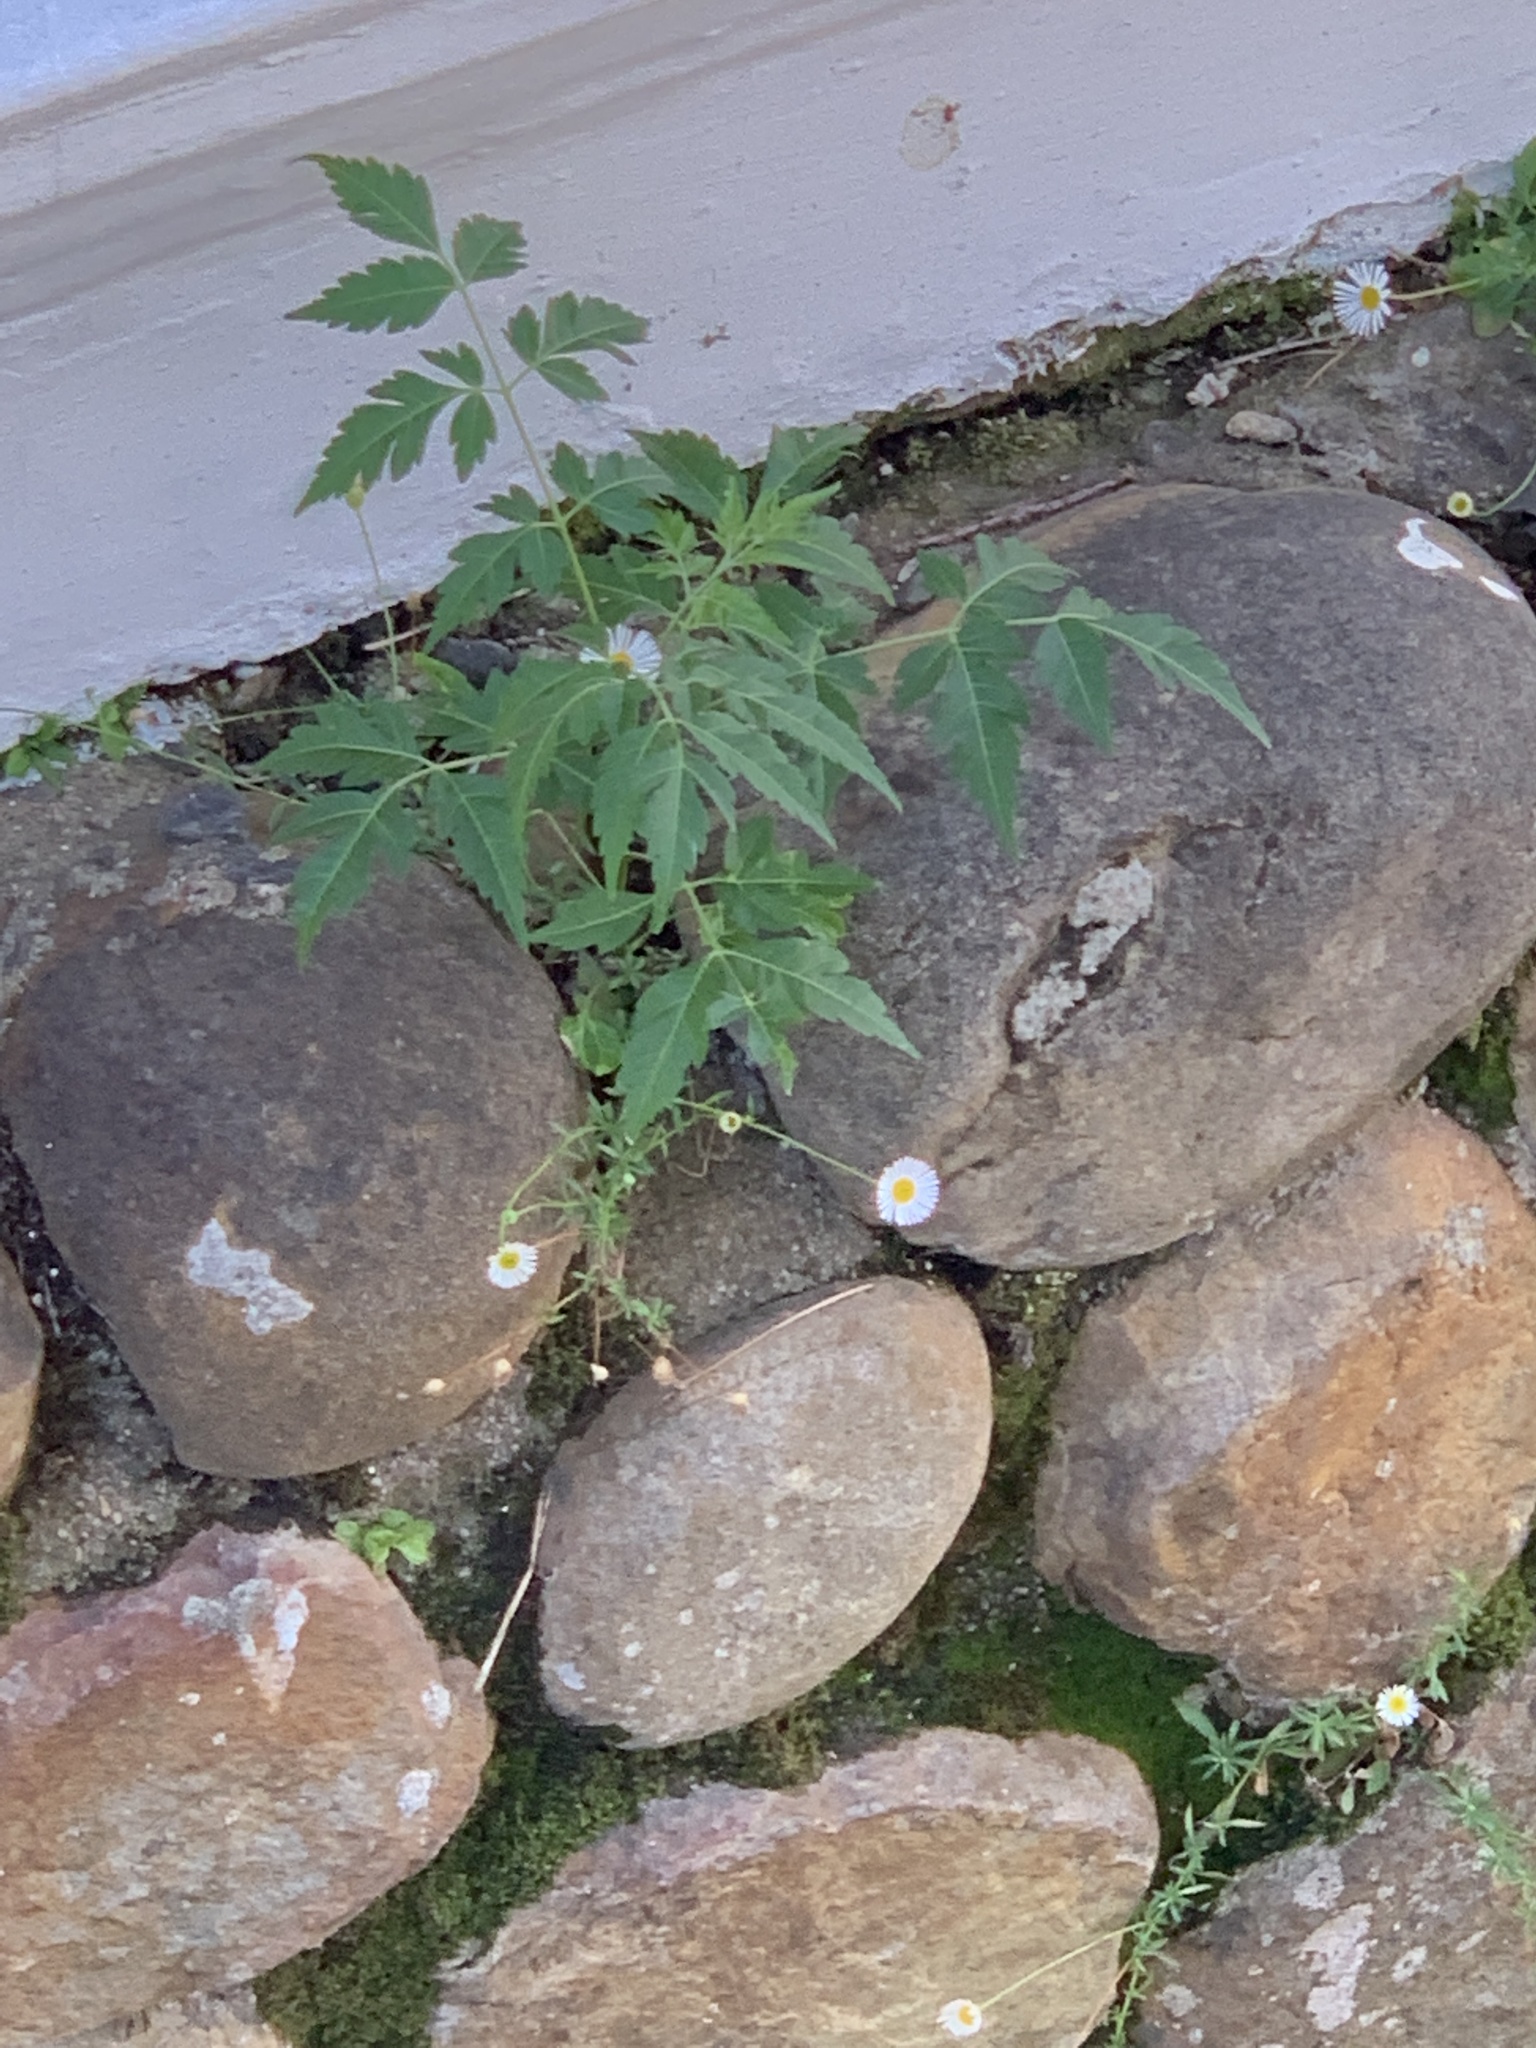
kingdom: Plantae
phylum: Tracheophyta
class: Magnoliopsida
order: Sapindales
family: Meliaceae
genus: Melia
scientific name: Melia azedarach
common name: Chinaberrytree
